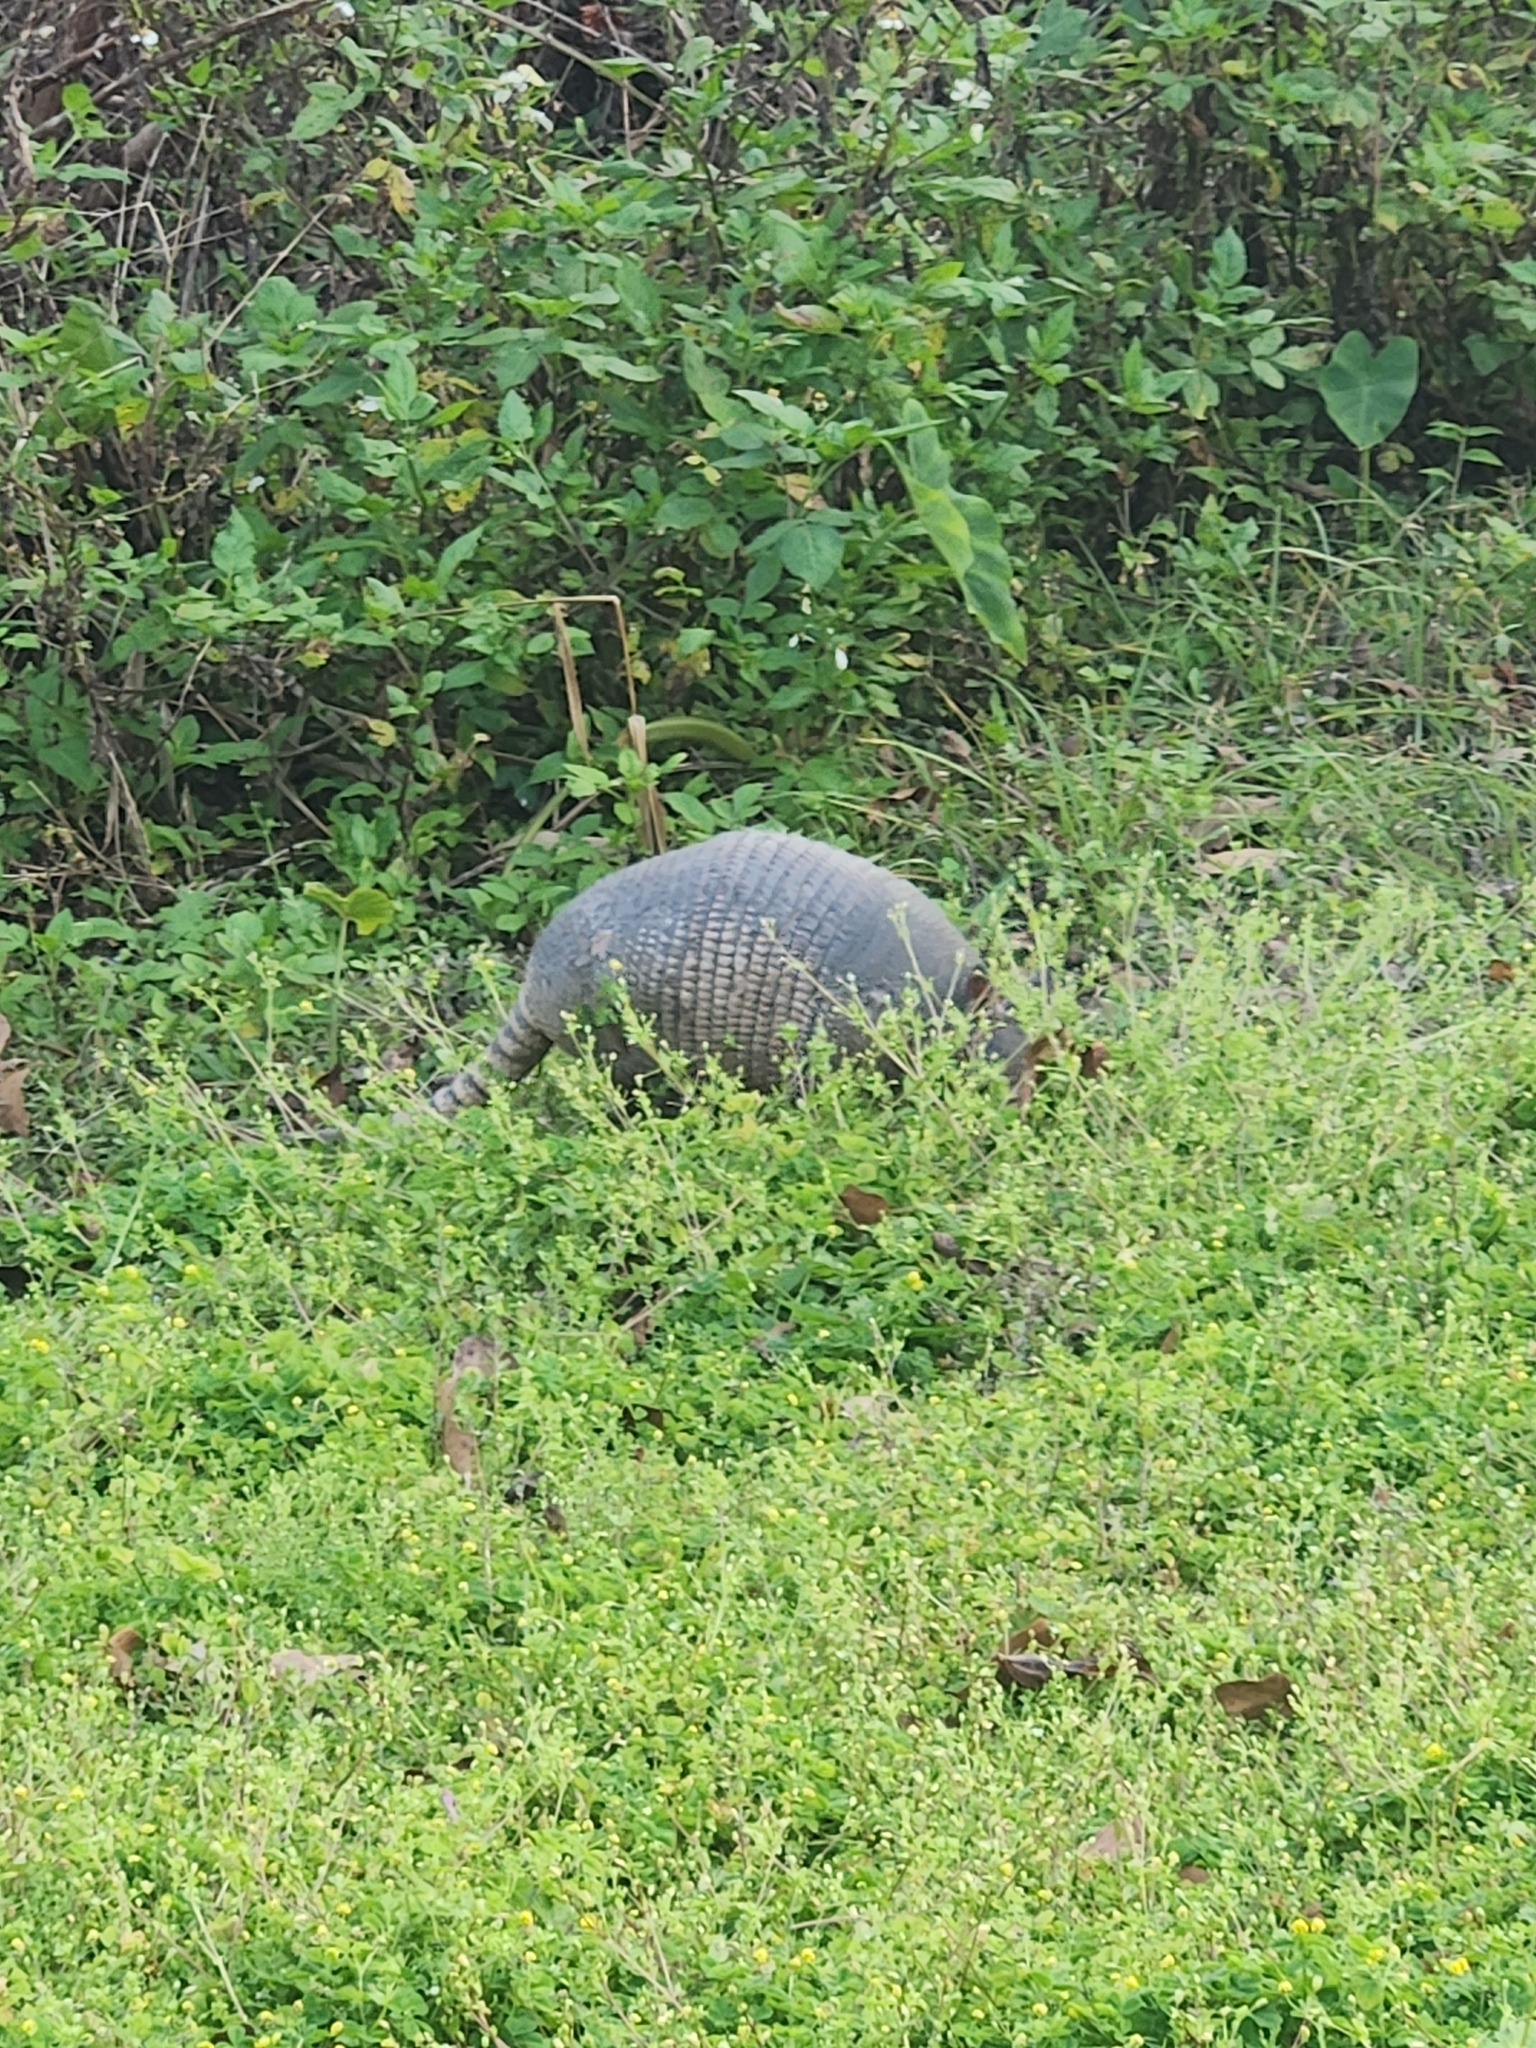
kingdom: Animalia
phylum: Chordata
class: Mammalia
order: Cingulata
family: Dasypodidae
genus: Dasypus
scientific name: Dasypus novemcinctus
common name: Nine-banded armadillo
